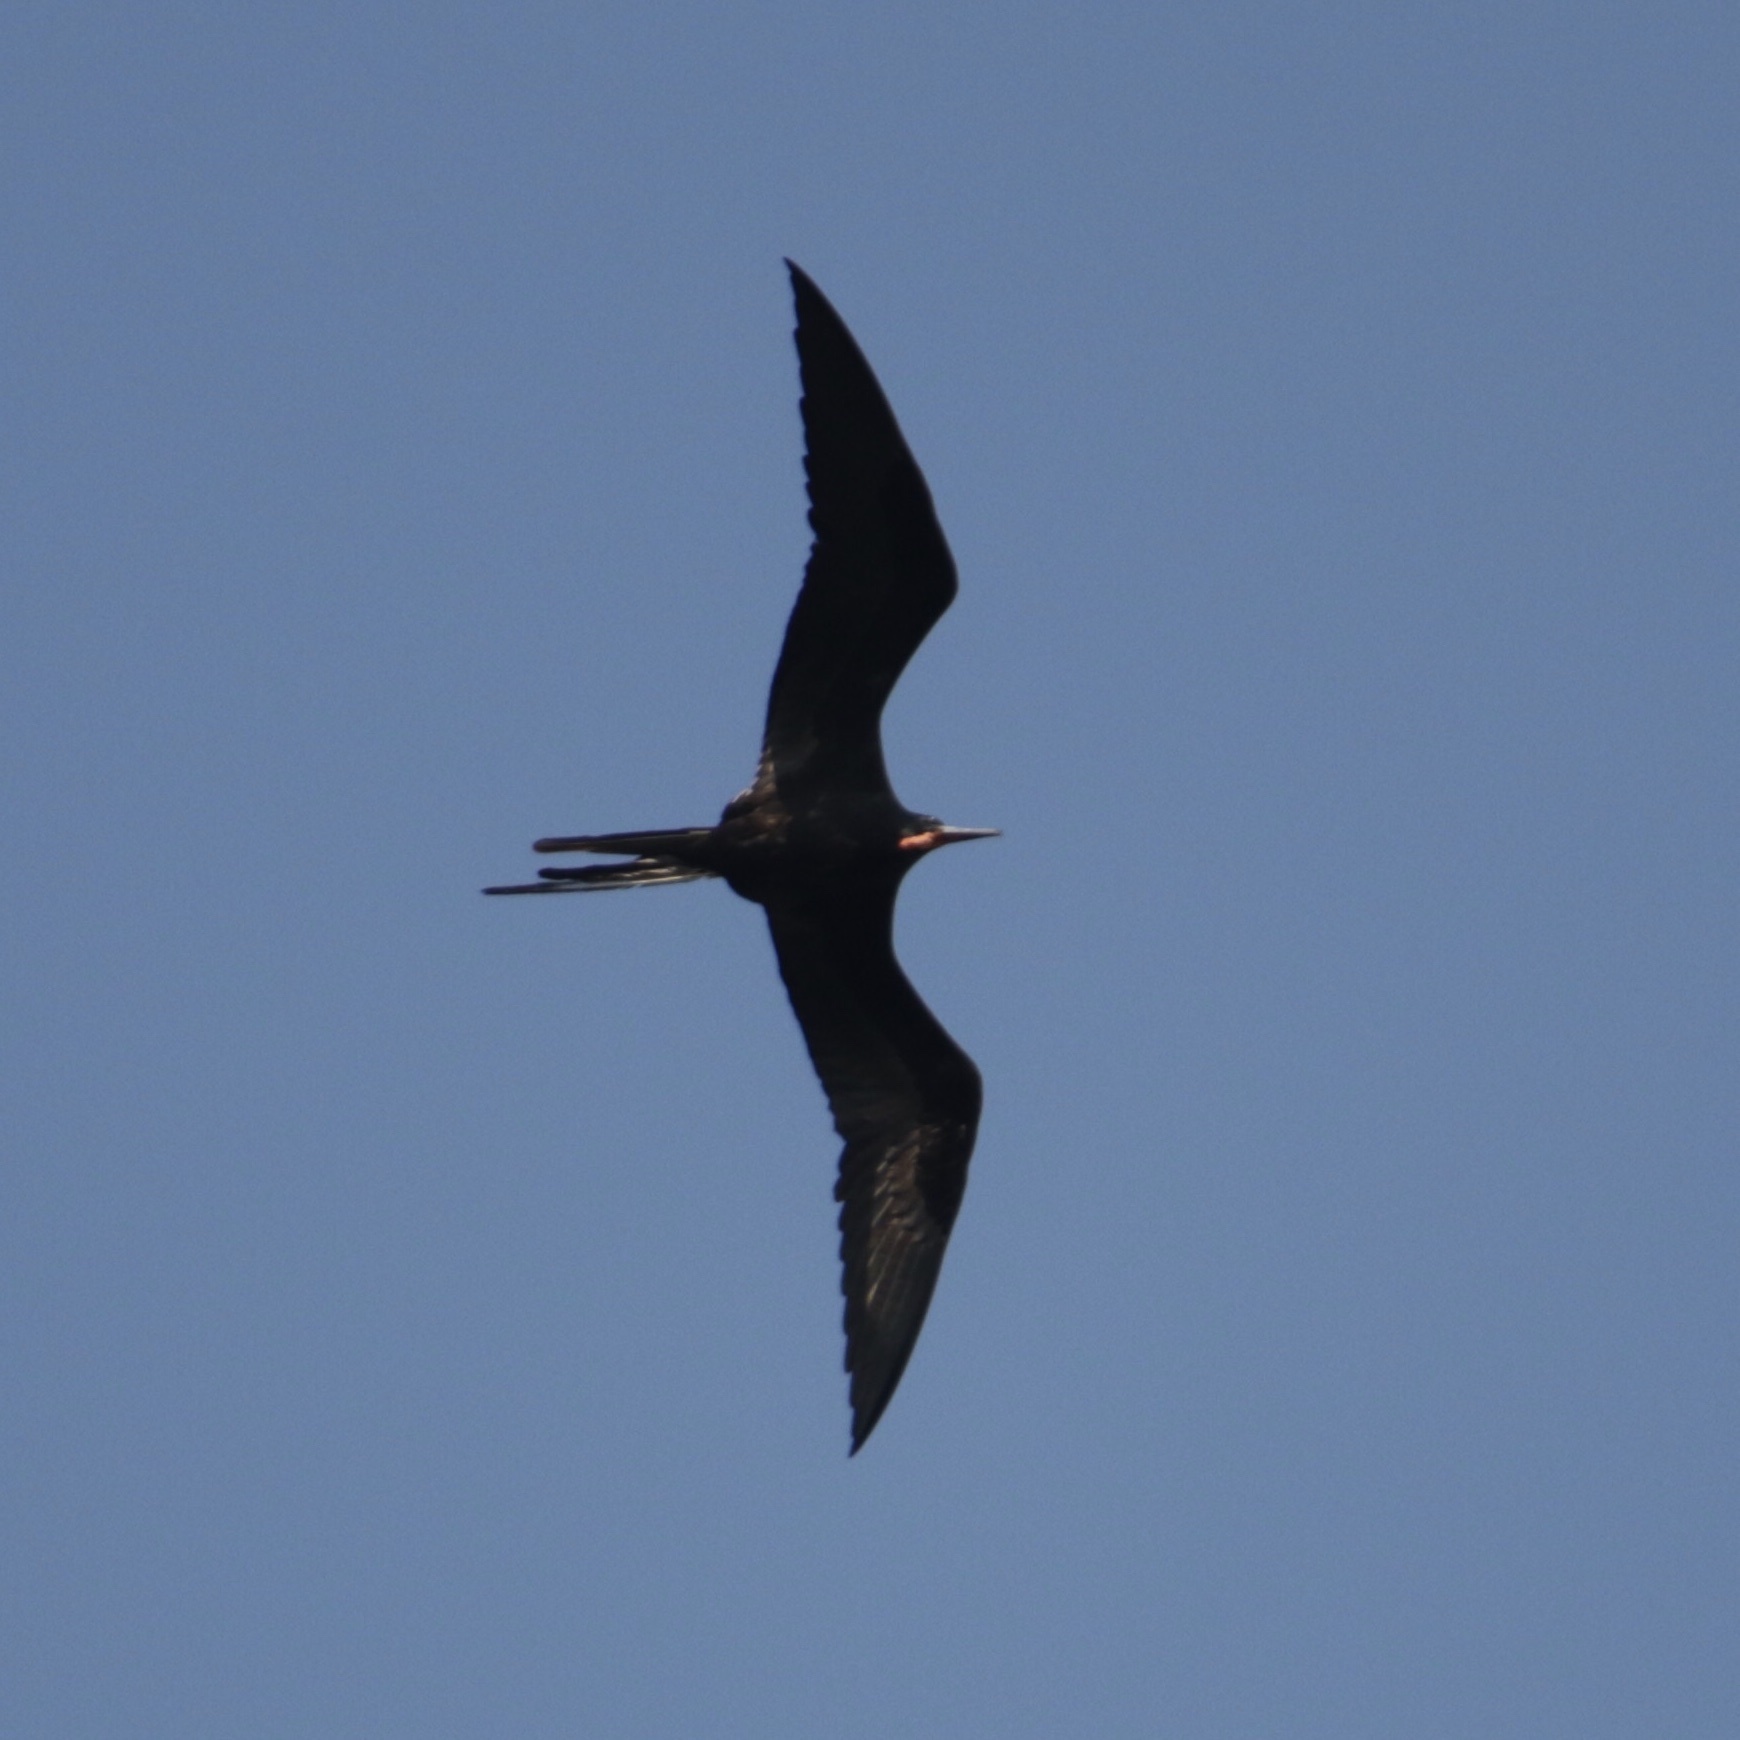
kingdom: Animalia
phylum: Chordata
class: Aves
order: Suliformes
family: Fregatidae
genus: Fregata
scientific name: Fregata magnificens
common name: Magnificent frigatebird
